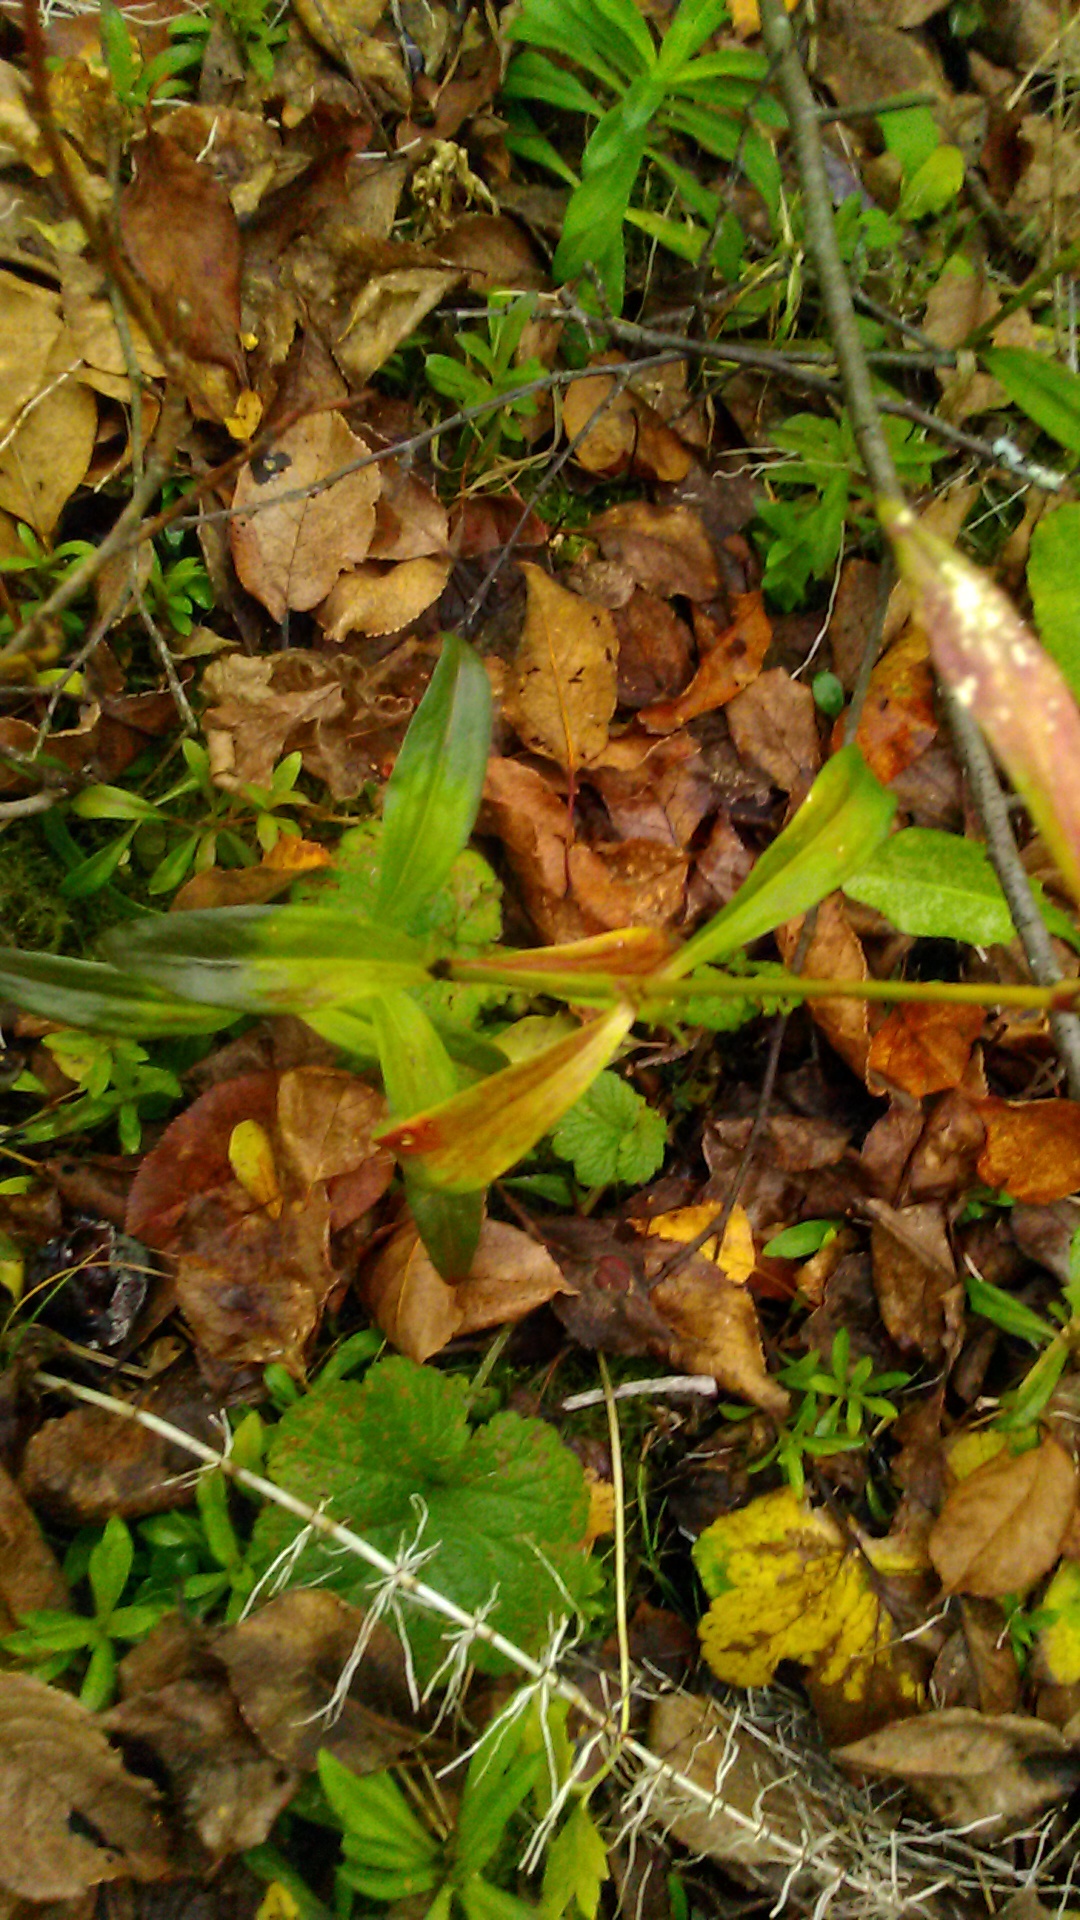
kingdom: Plantae
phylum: Tracheophyta
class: Magnoliopsida
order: Caryophyllales
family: Caryophyllaceae
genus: Dianthus
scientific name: Dianthus barbatus
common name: Sweet-william
